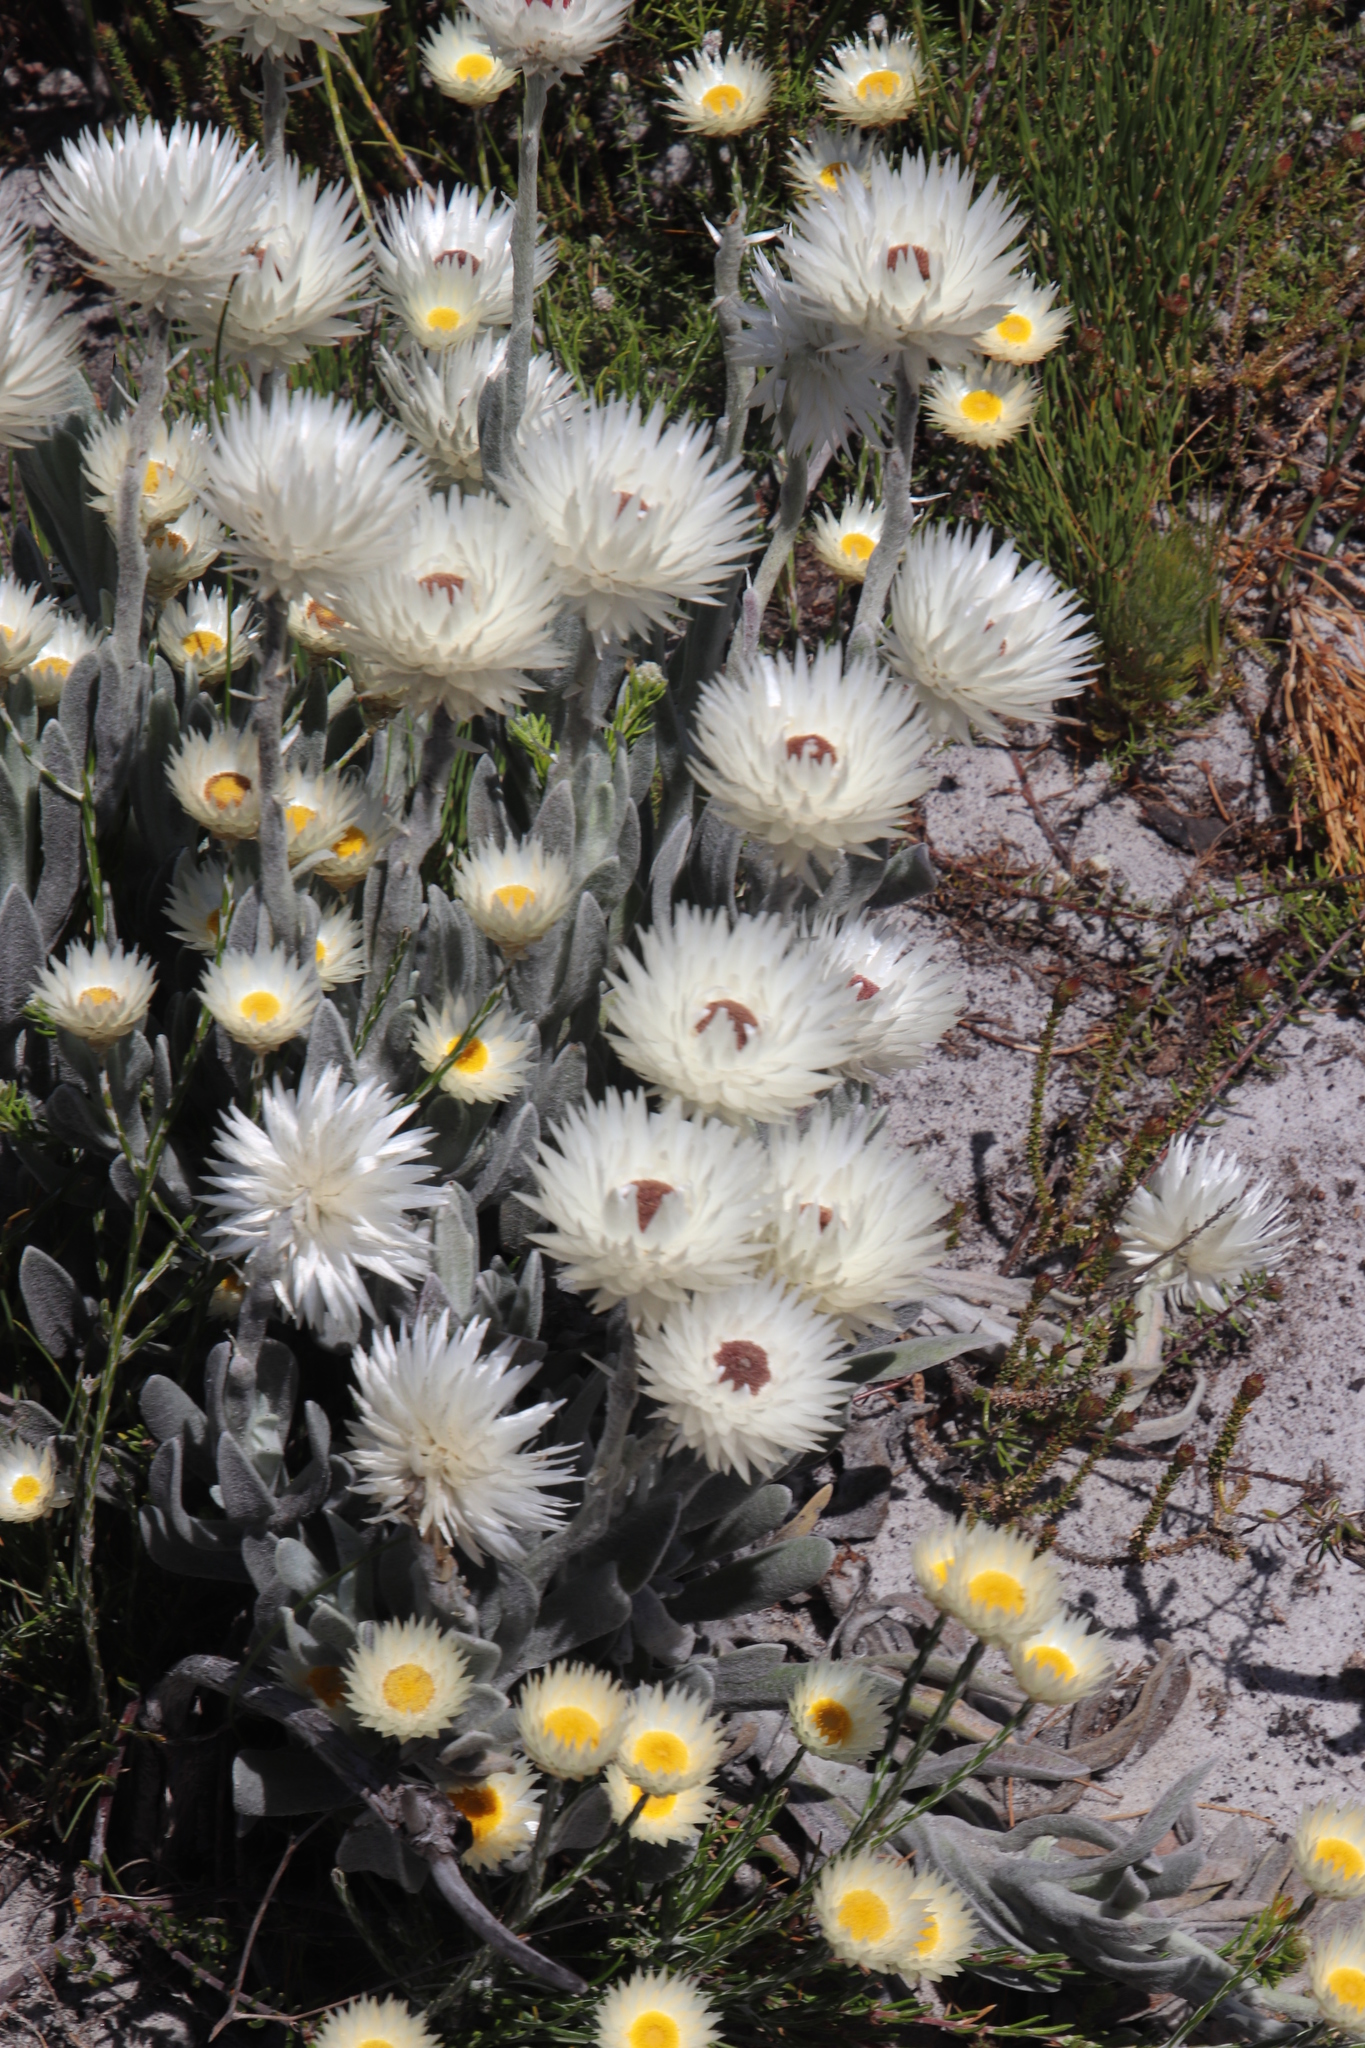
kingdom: Plantae
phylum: Tracheophyta
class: Magnoliopsida
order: Asterales
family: Asteraceae
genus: Syncarpha
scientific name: Syncarpha vestita
